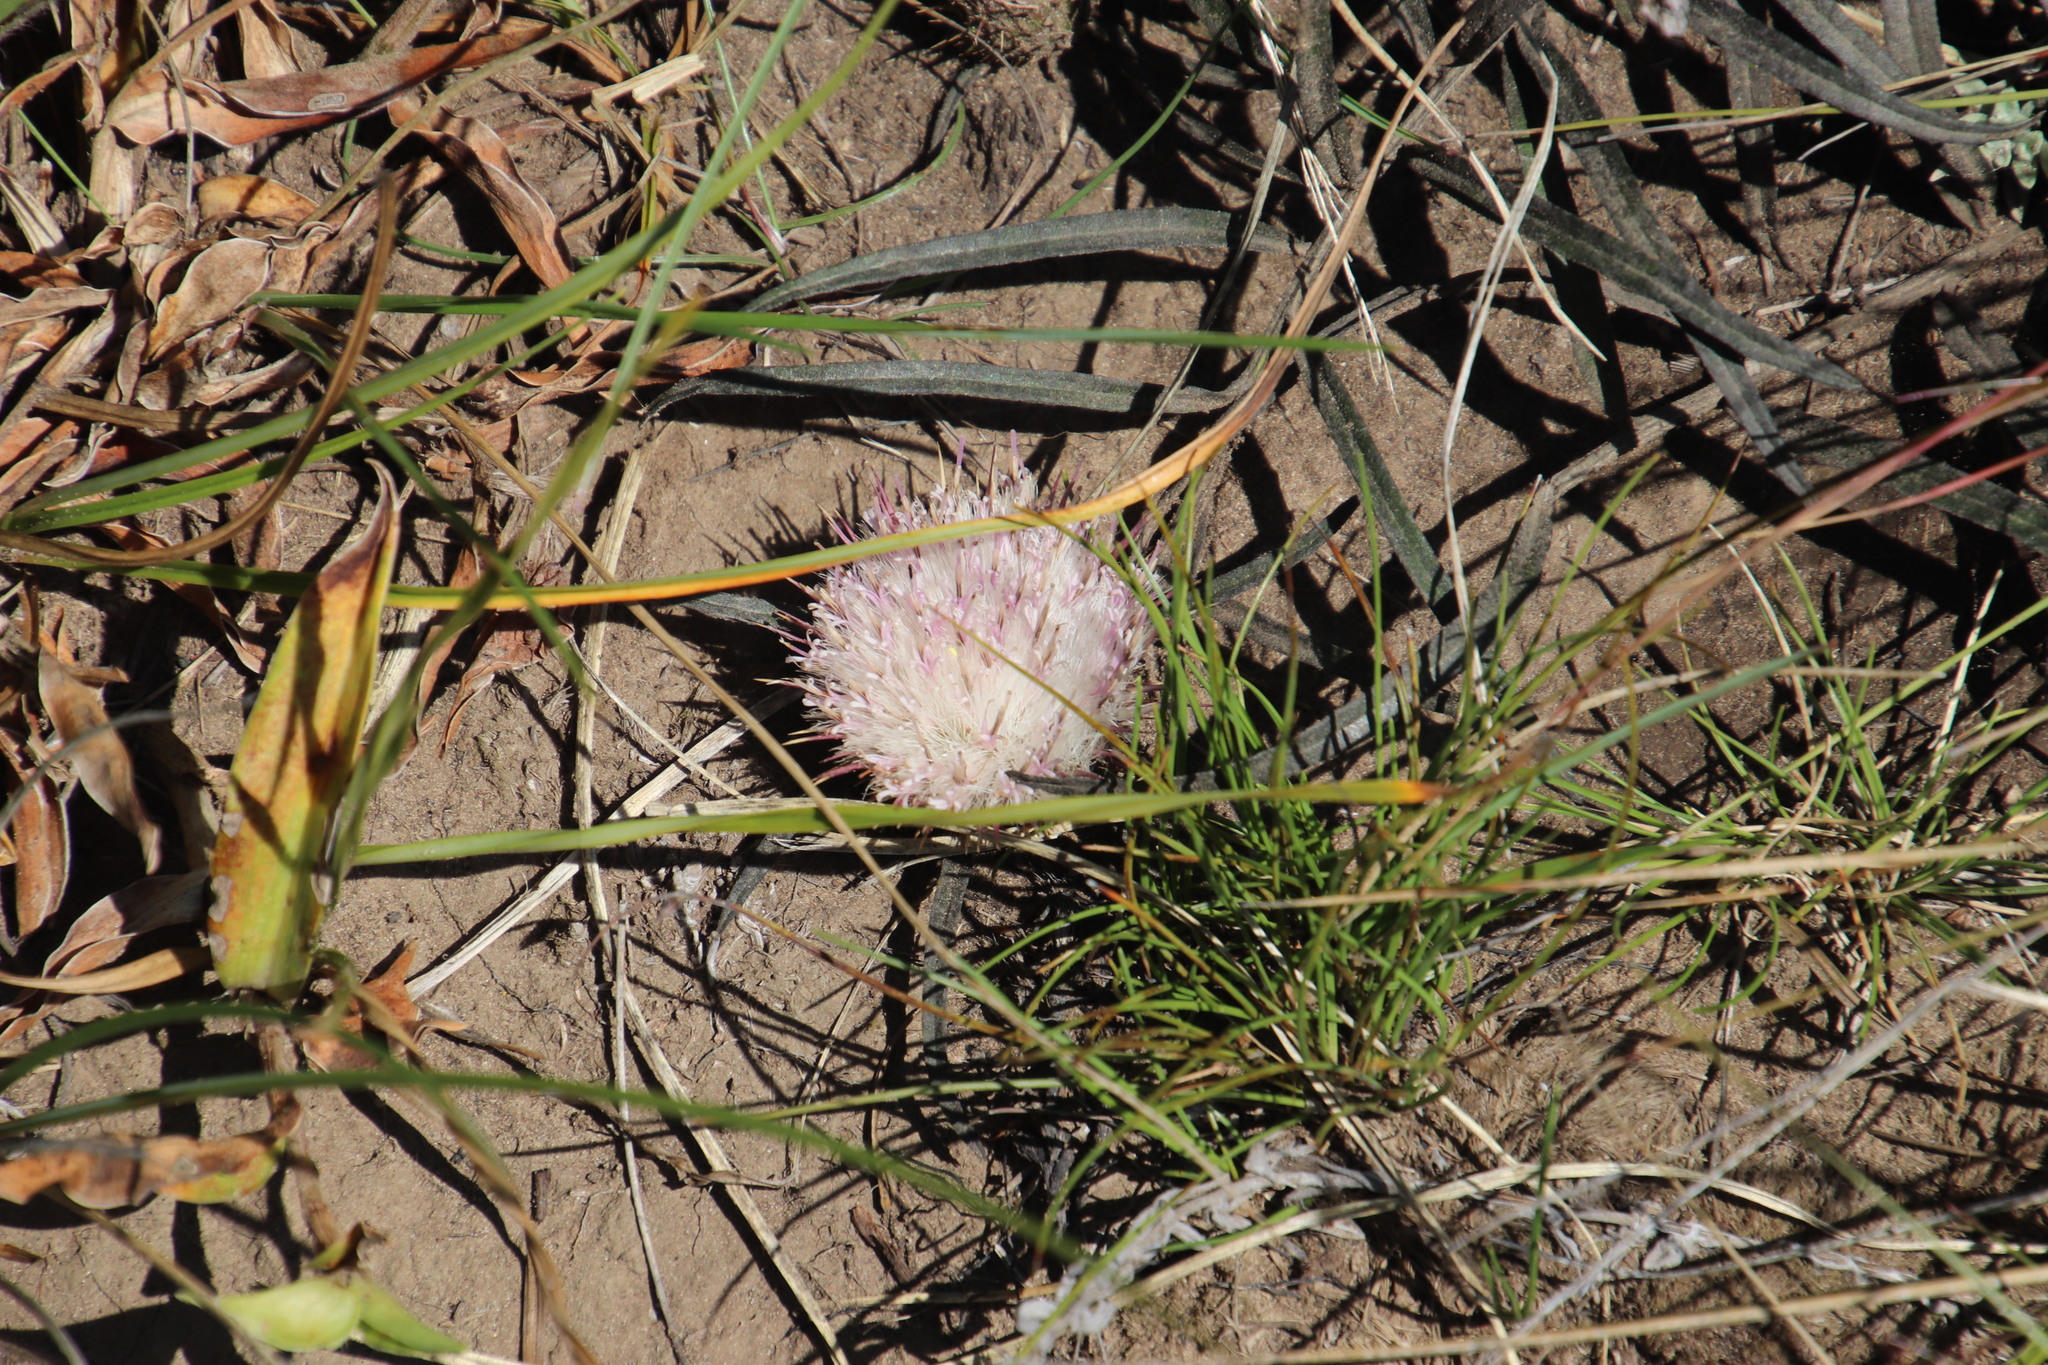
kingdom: Plantae
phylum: Tracheophyta
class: Magnoliopsida
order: Asterales
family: Asteraceae
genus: Dicoma
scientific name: Dicoma anomala
